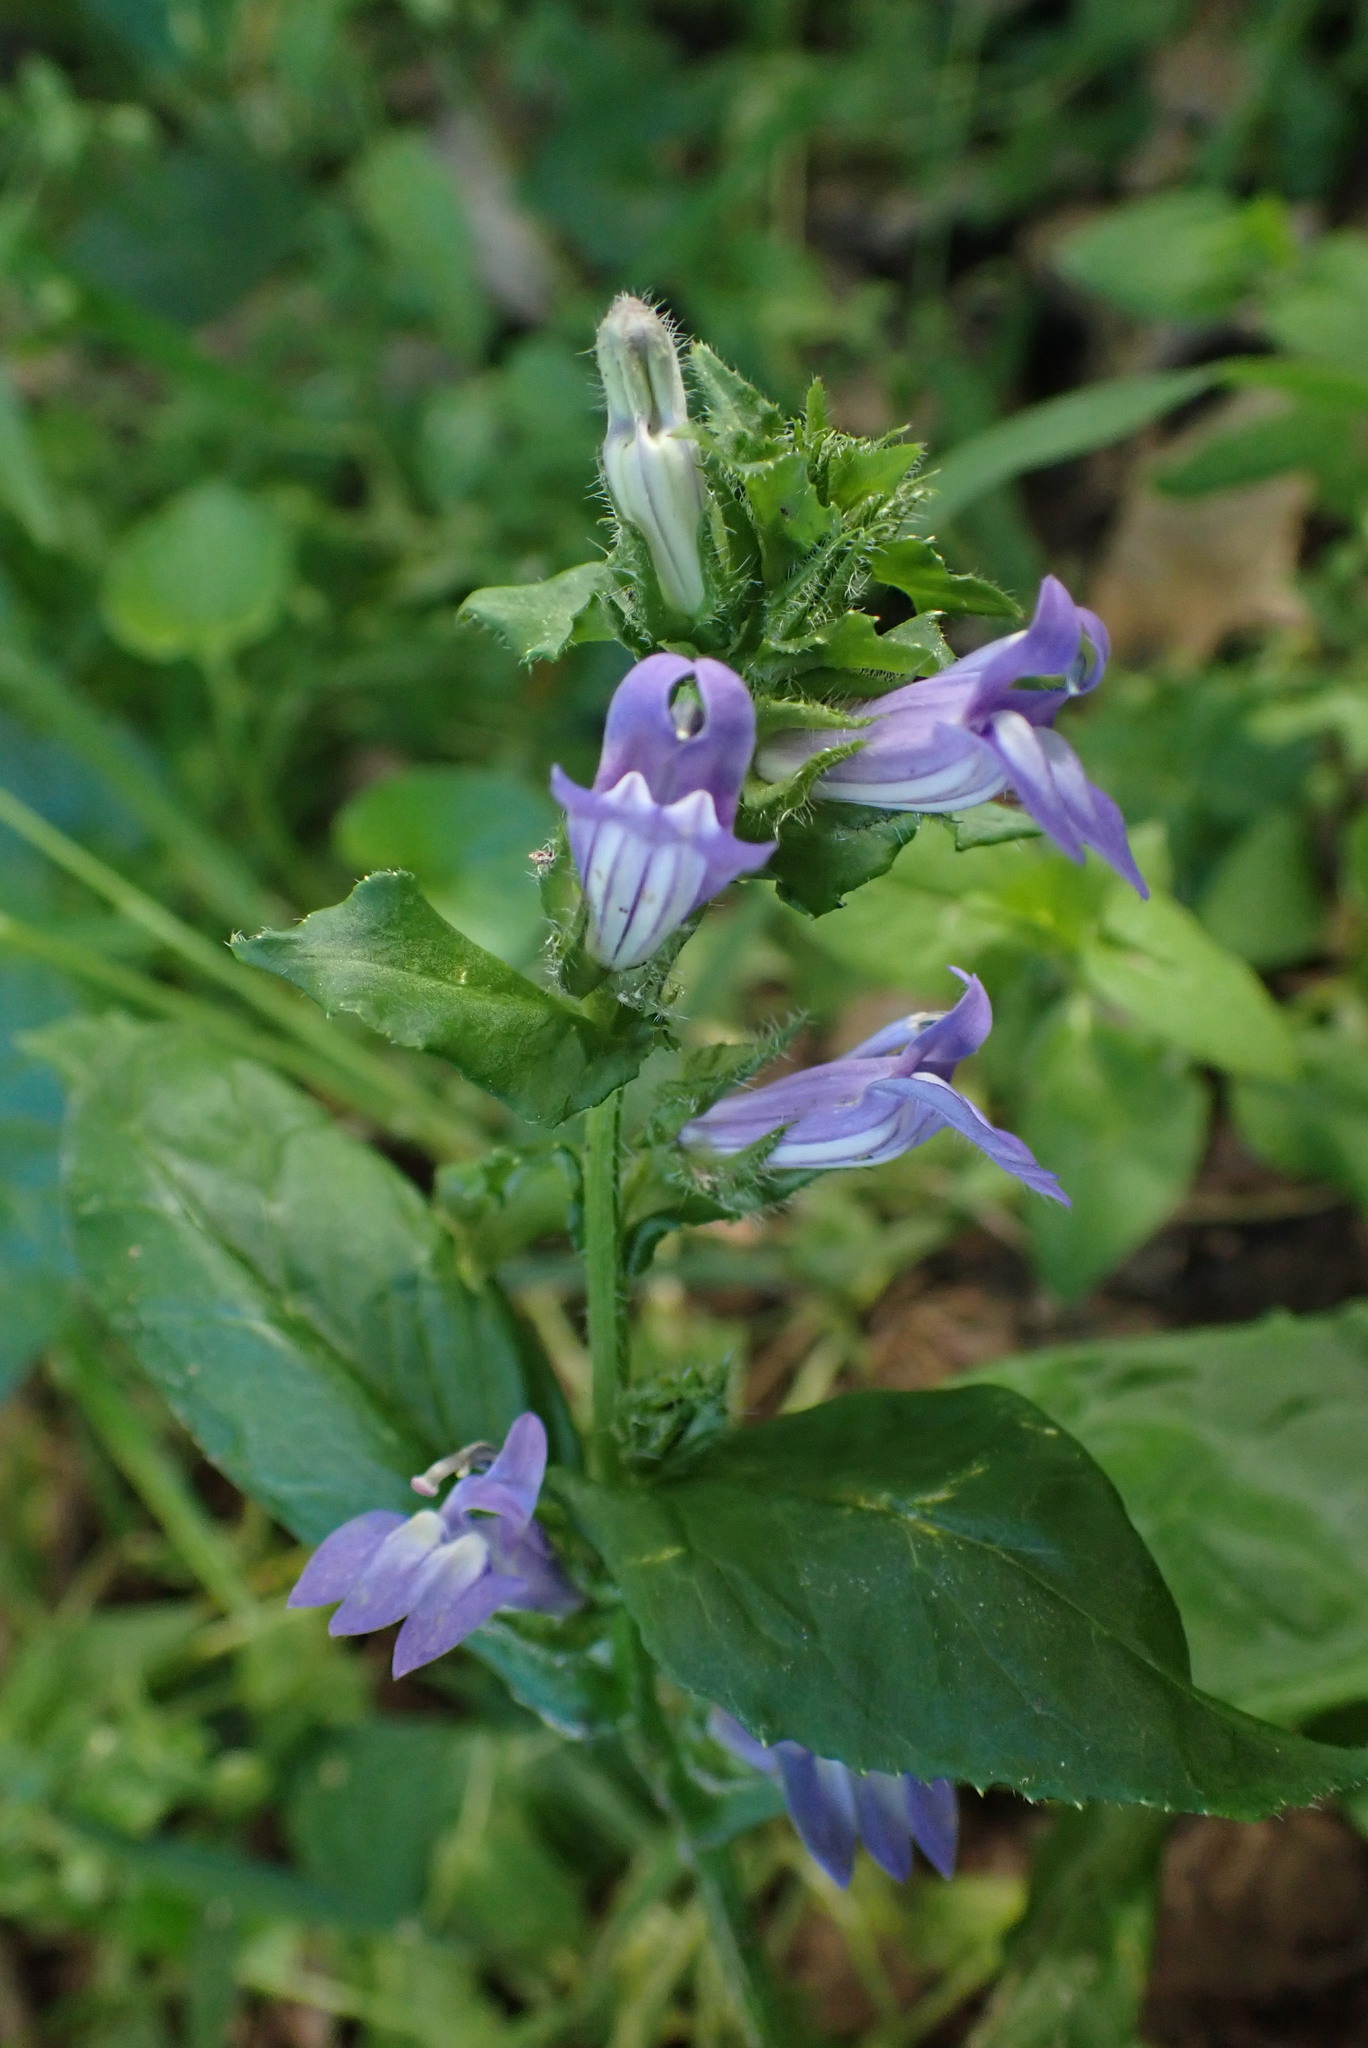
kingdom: Plantae
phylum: Tracheophyta
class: Magnoliopsida
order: Asterales
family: Campanulaceae
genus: Lobelia
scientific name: Lobelia siphilitica
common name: Great lobelia
